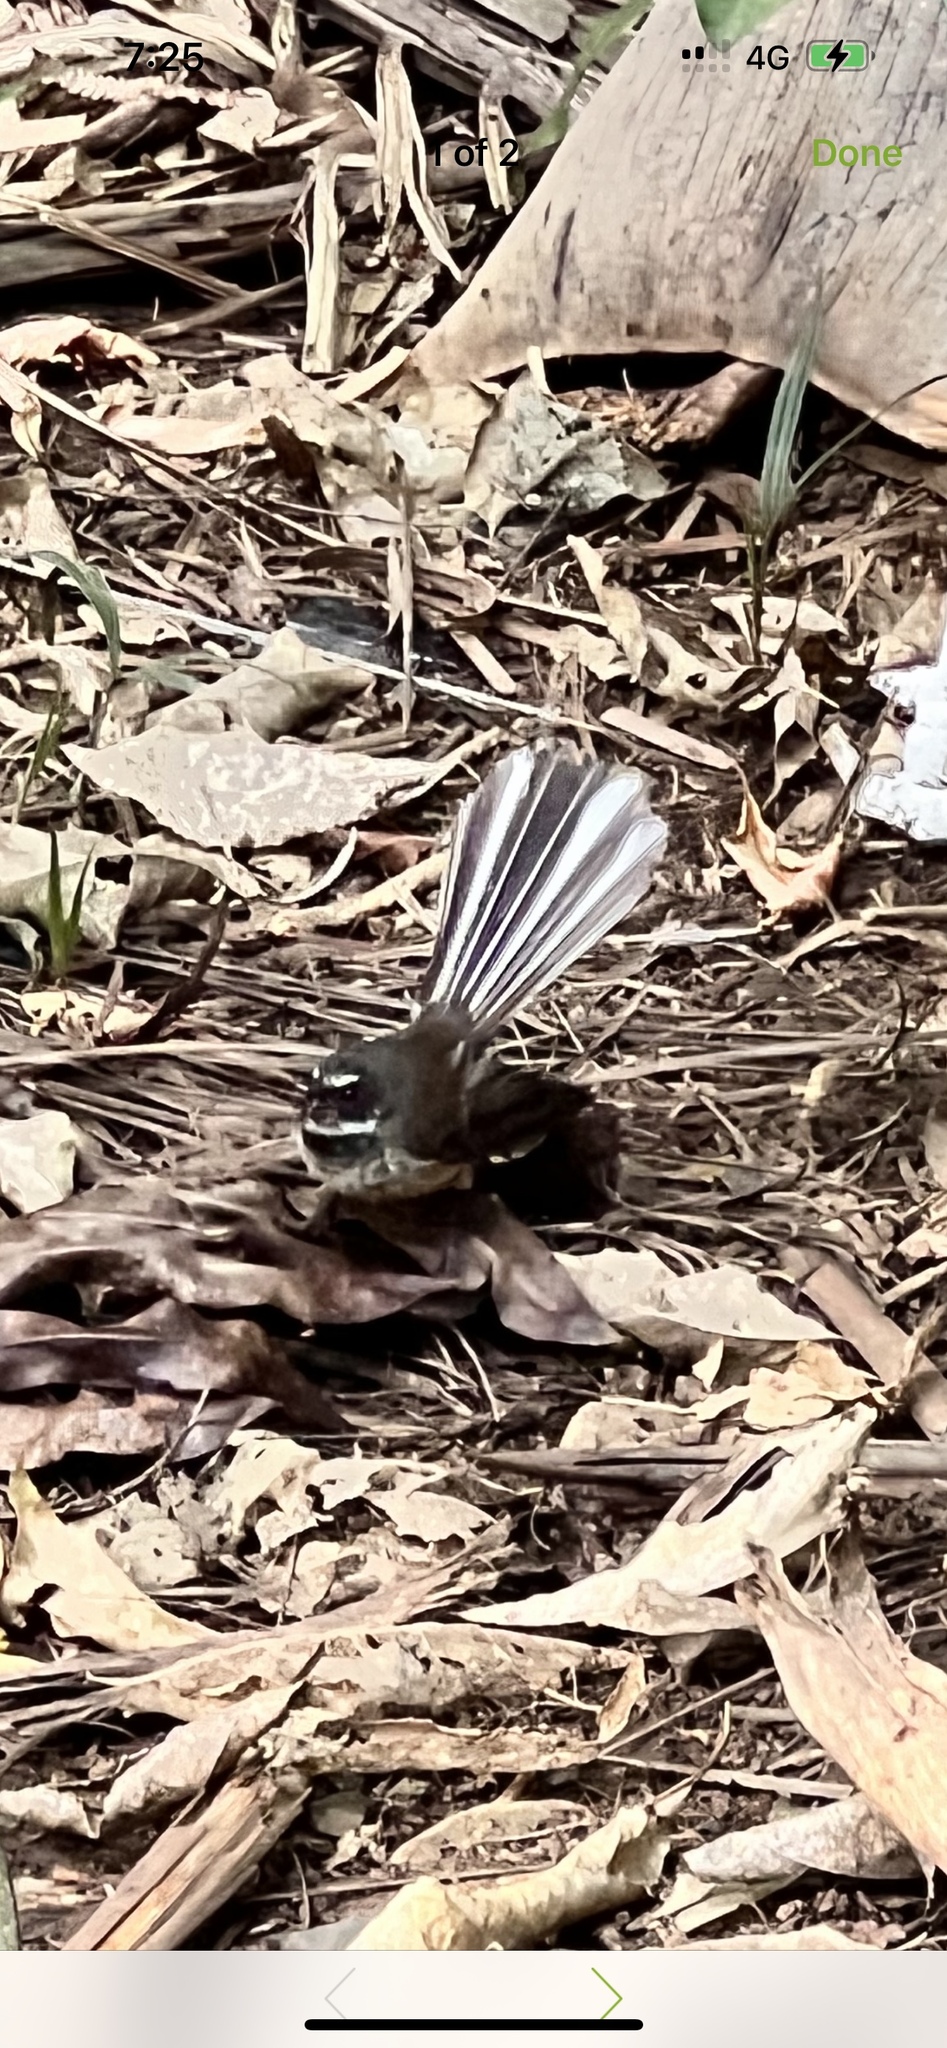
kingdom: Animalia
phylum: Chordata
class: Aves
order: Passeriformes
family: Rhipiduridae
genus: Rhipidura
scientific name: Rhipidura fuliginosa
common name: New zealand fantail
